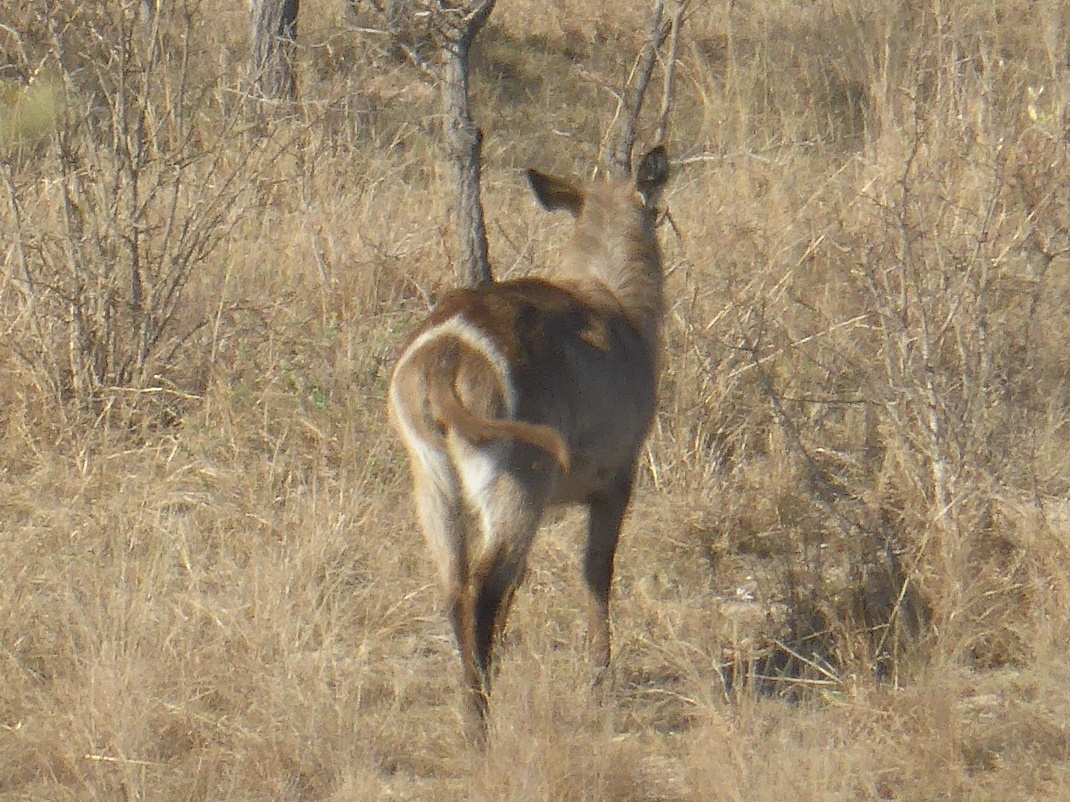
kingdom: Animalia
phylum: Chordata
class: Mammalia
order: Artiodactyla
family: Bovidae
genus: Kobus
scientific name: Kobus ellipsiprymnus
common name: Waterbuck
